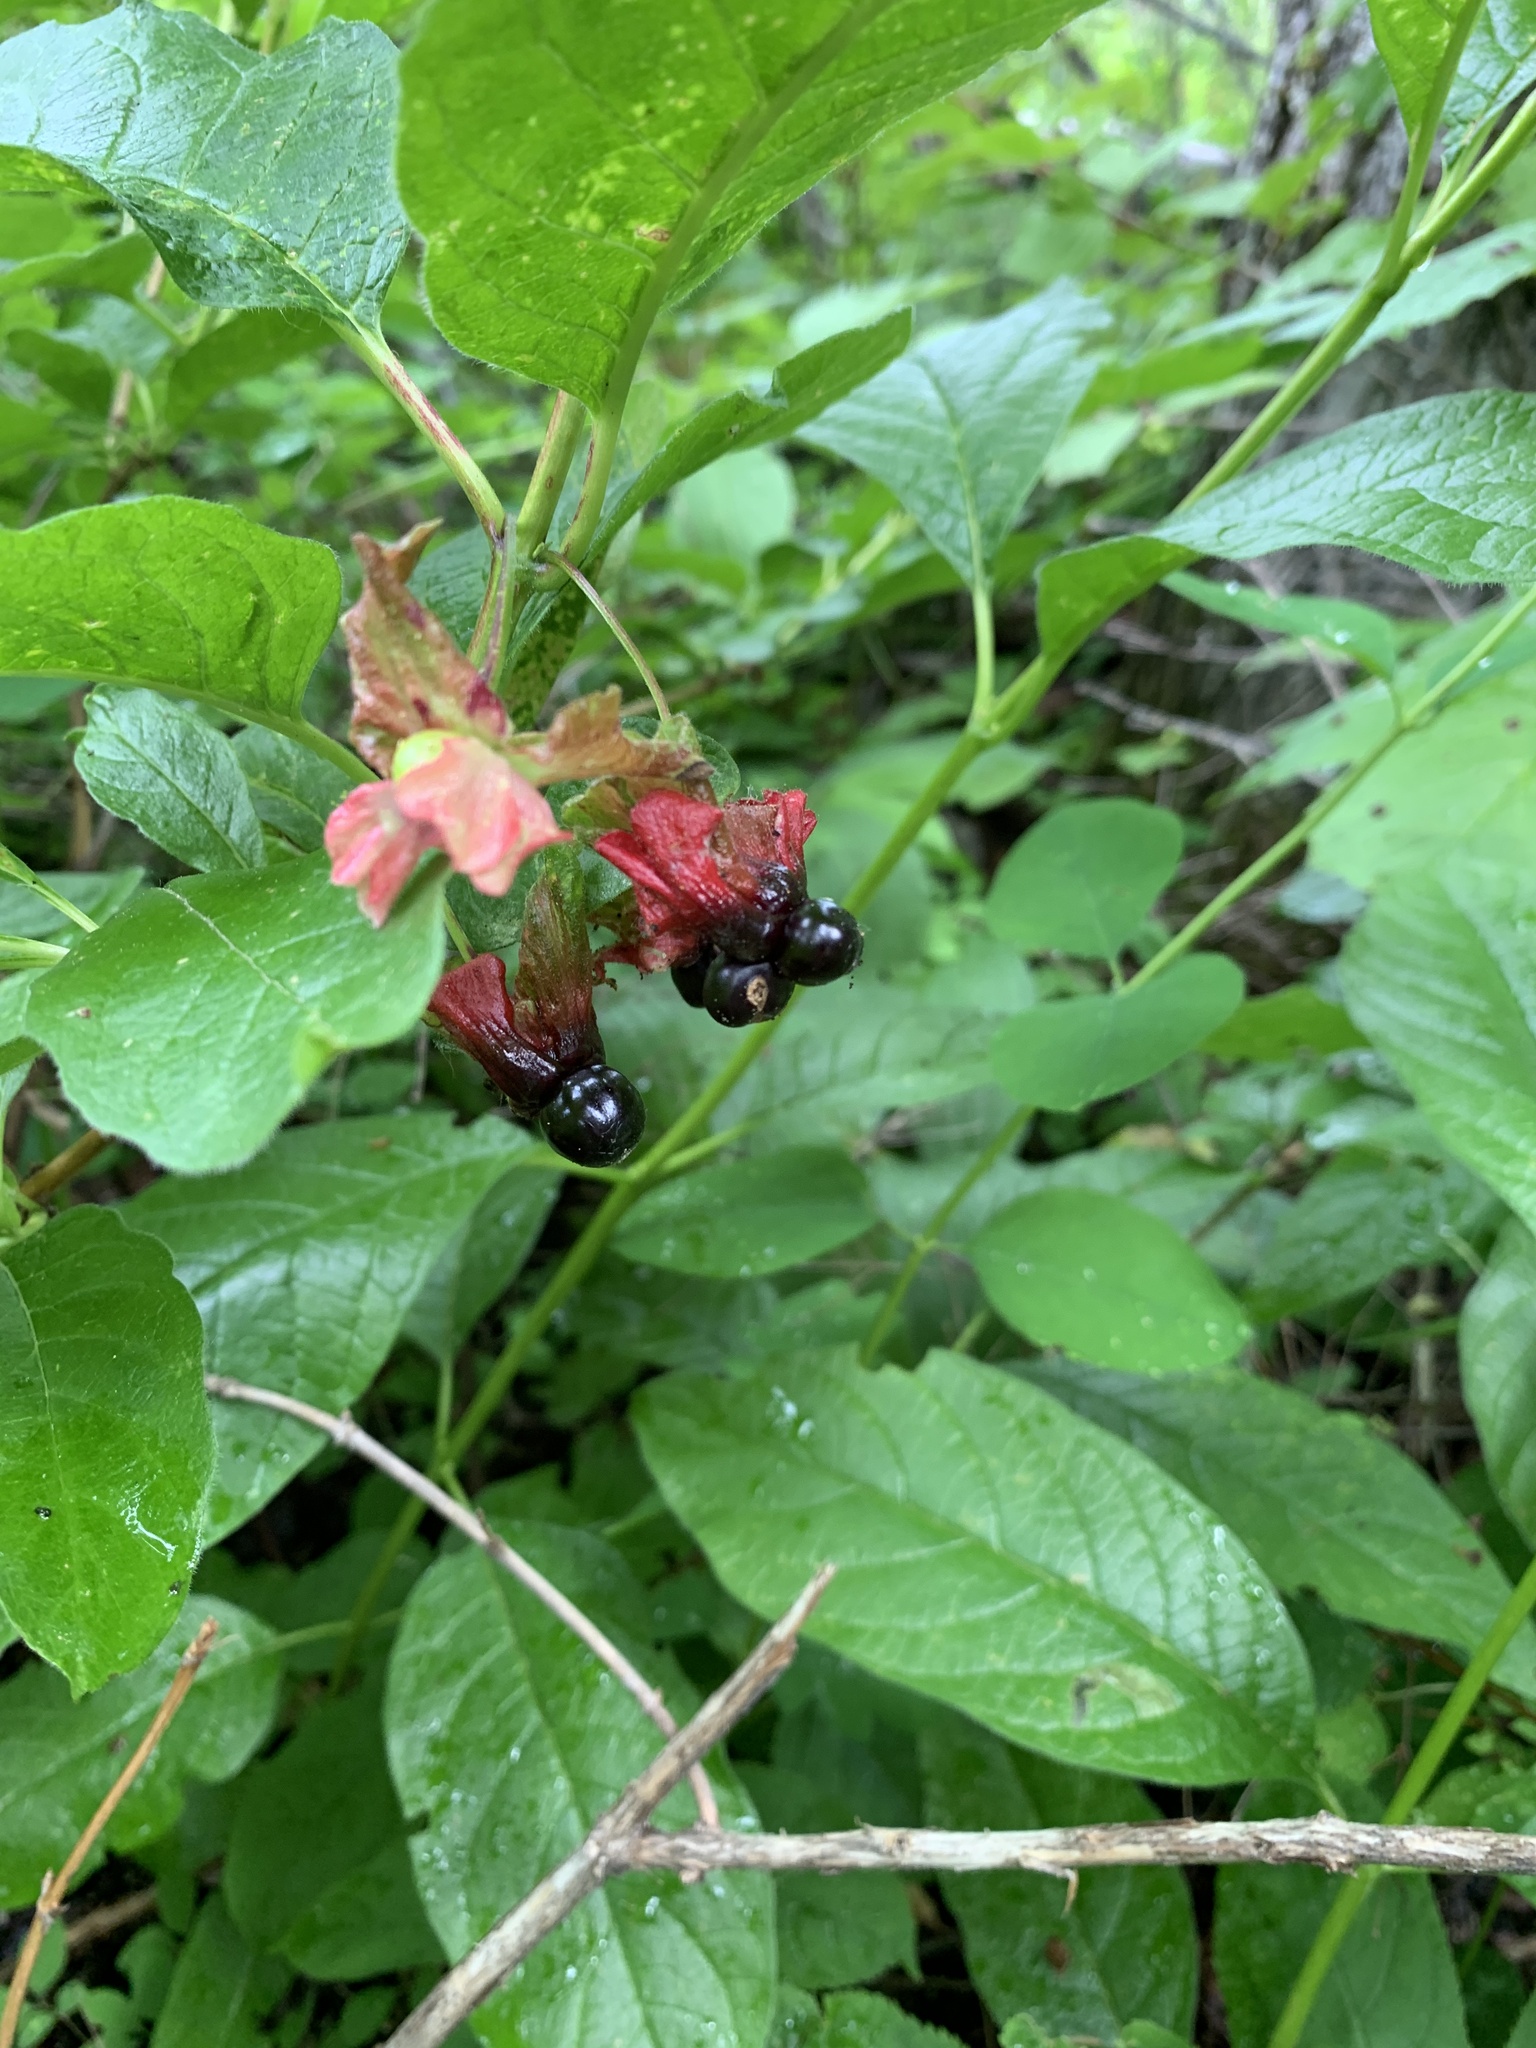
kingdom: Plantae
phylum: Tracheophyta
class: Magnoliopsida
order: Dipsacales
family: Caprifoliaceae
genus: Lonicera
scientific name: Lonicera involucrata
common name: Californian honeysuckle
